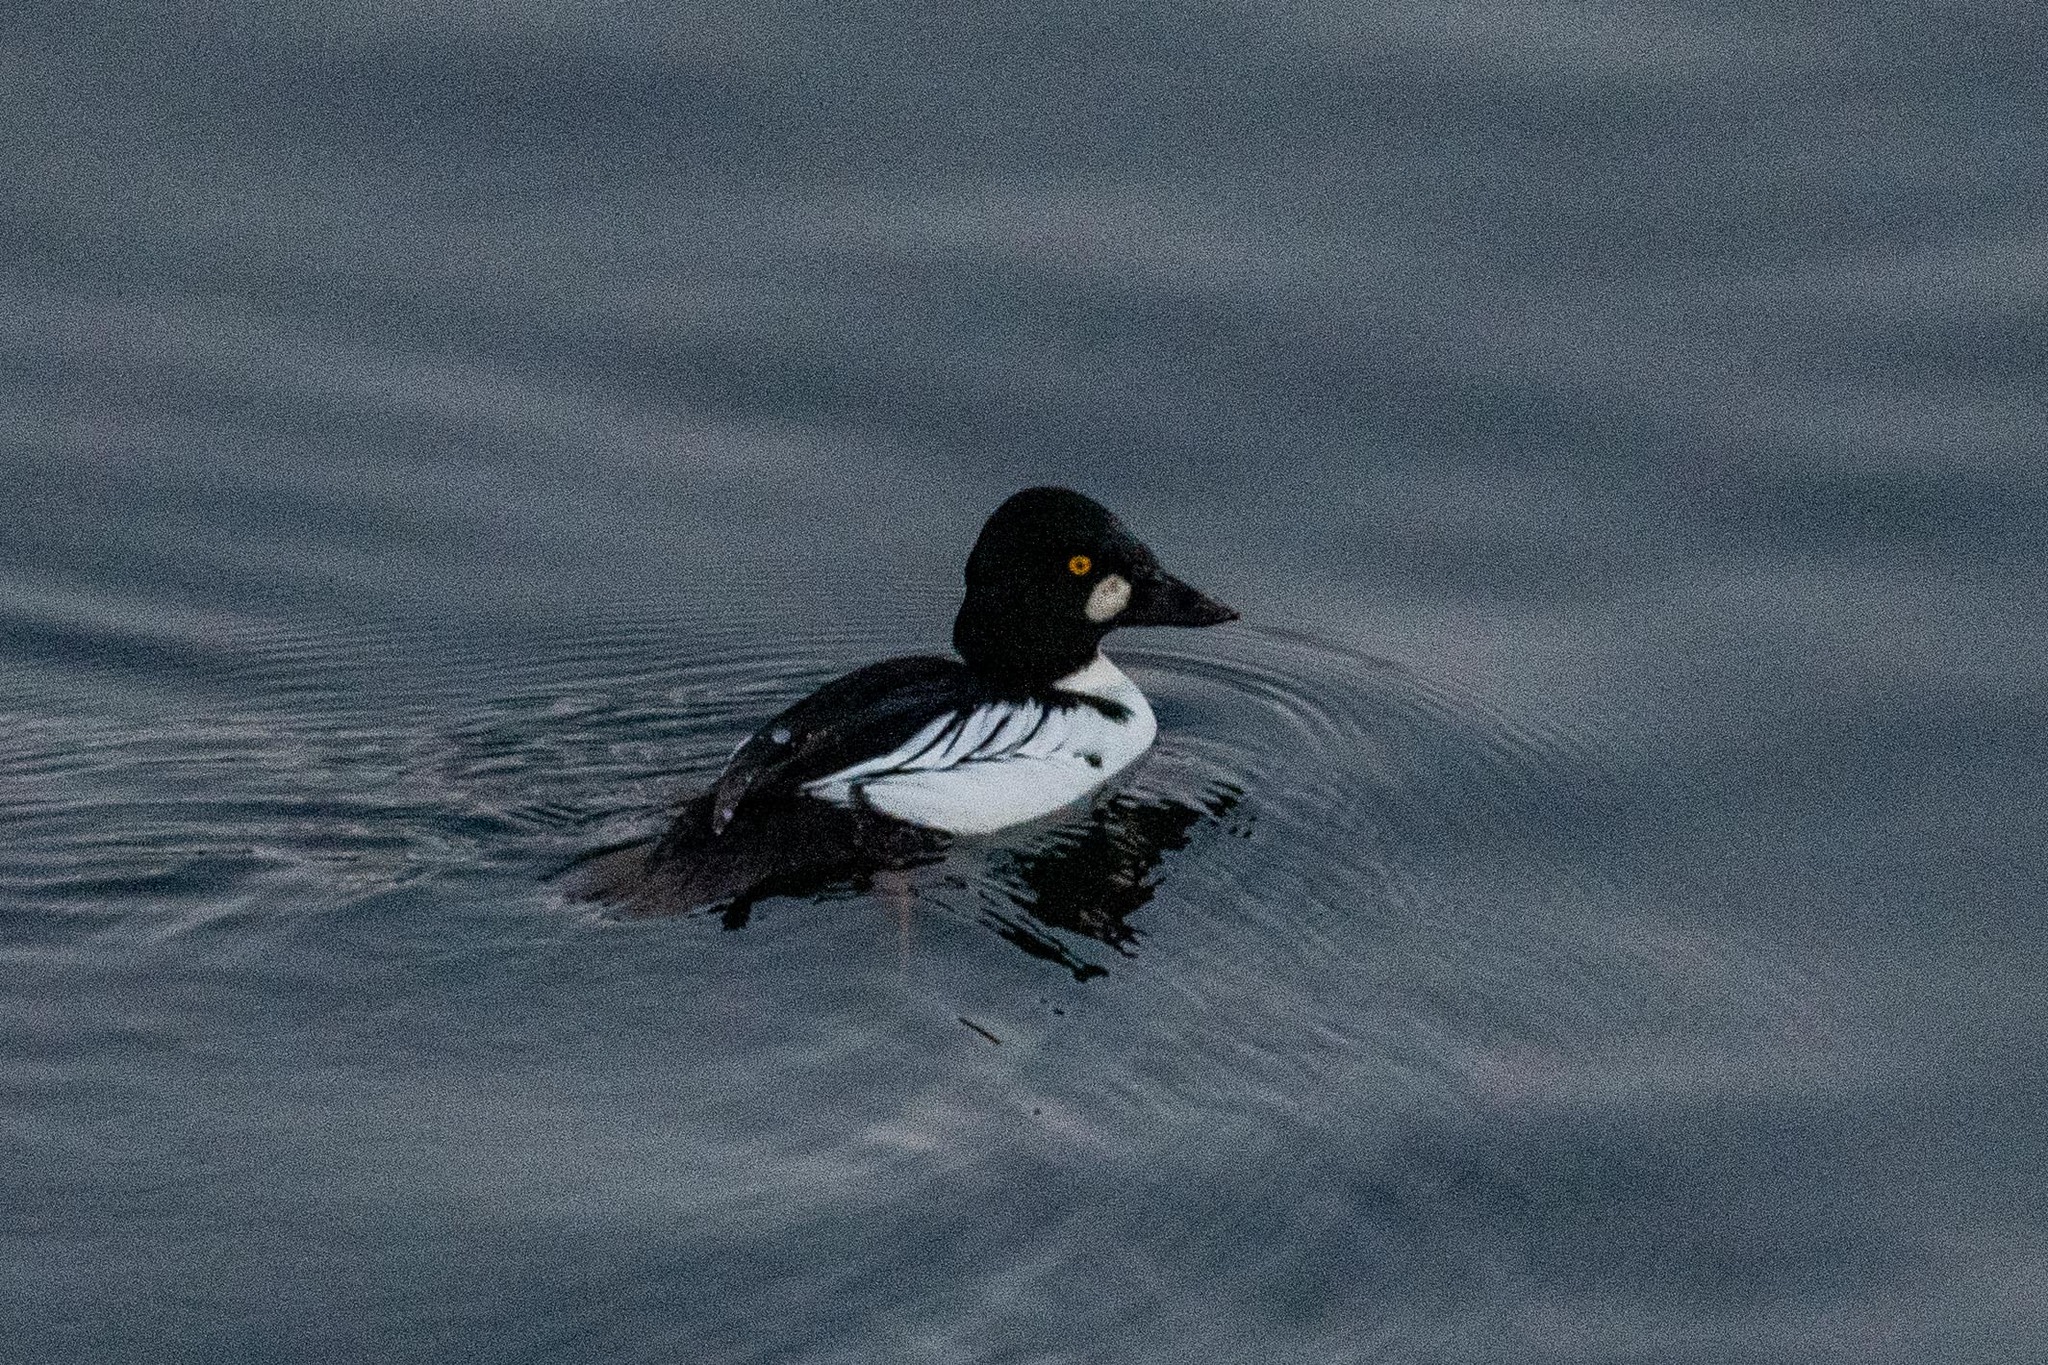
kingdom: Animalia
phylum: Chordata
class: Aves
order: Anseriformes
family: Anatidae
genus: Bucephala
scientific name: Bucephala clangula
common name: Common goldeneye
